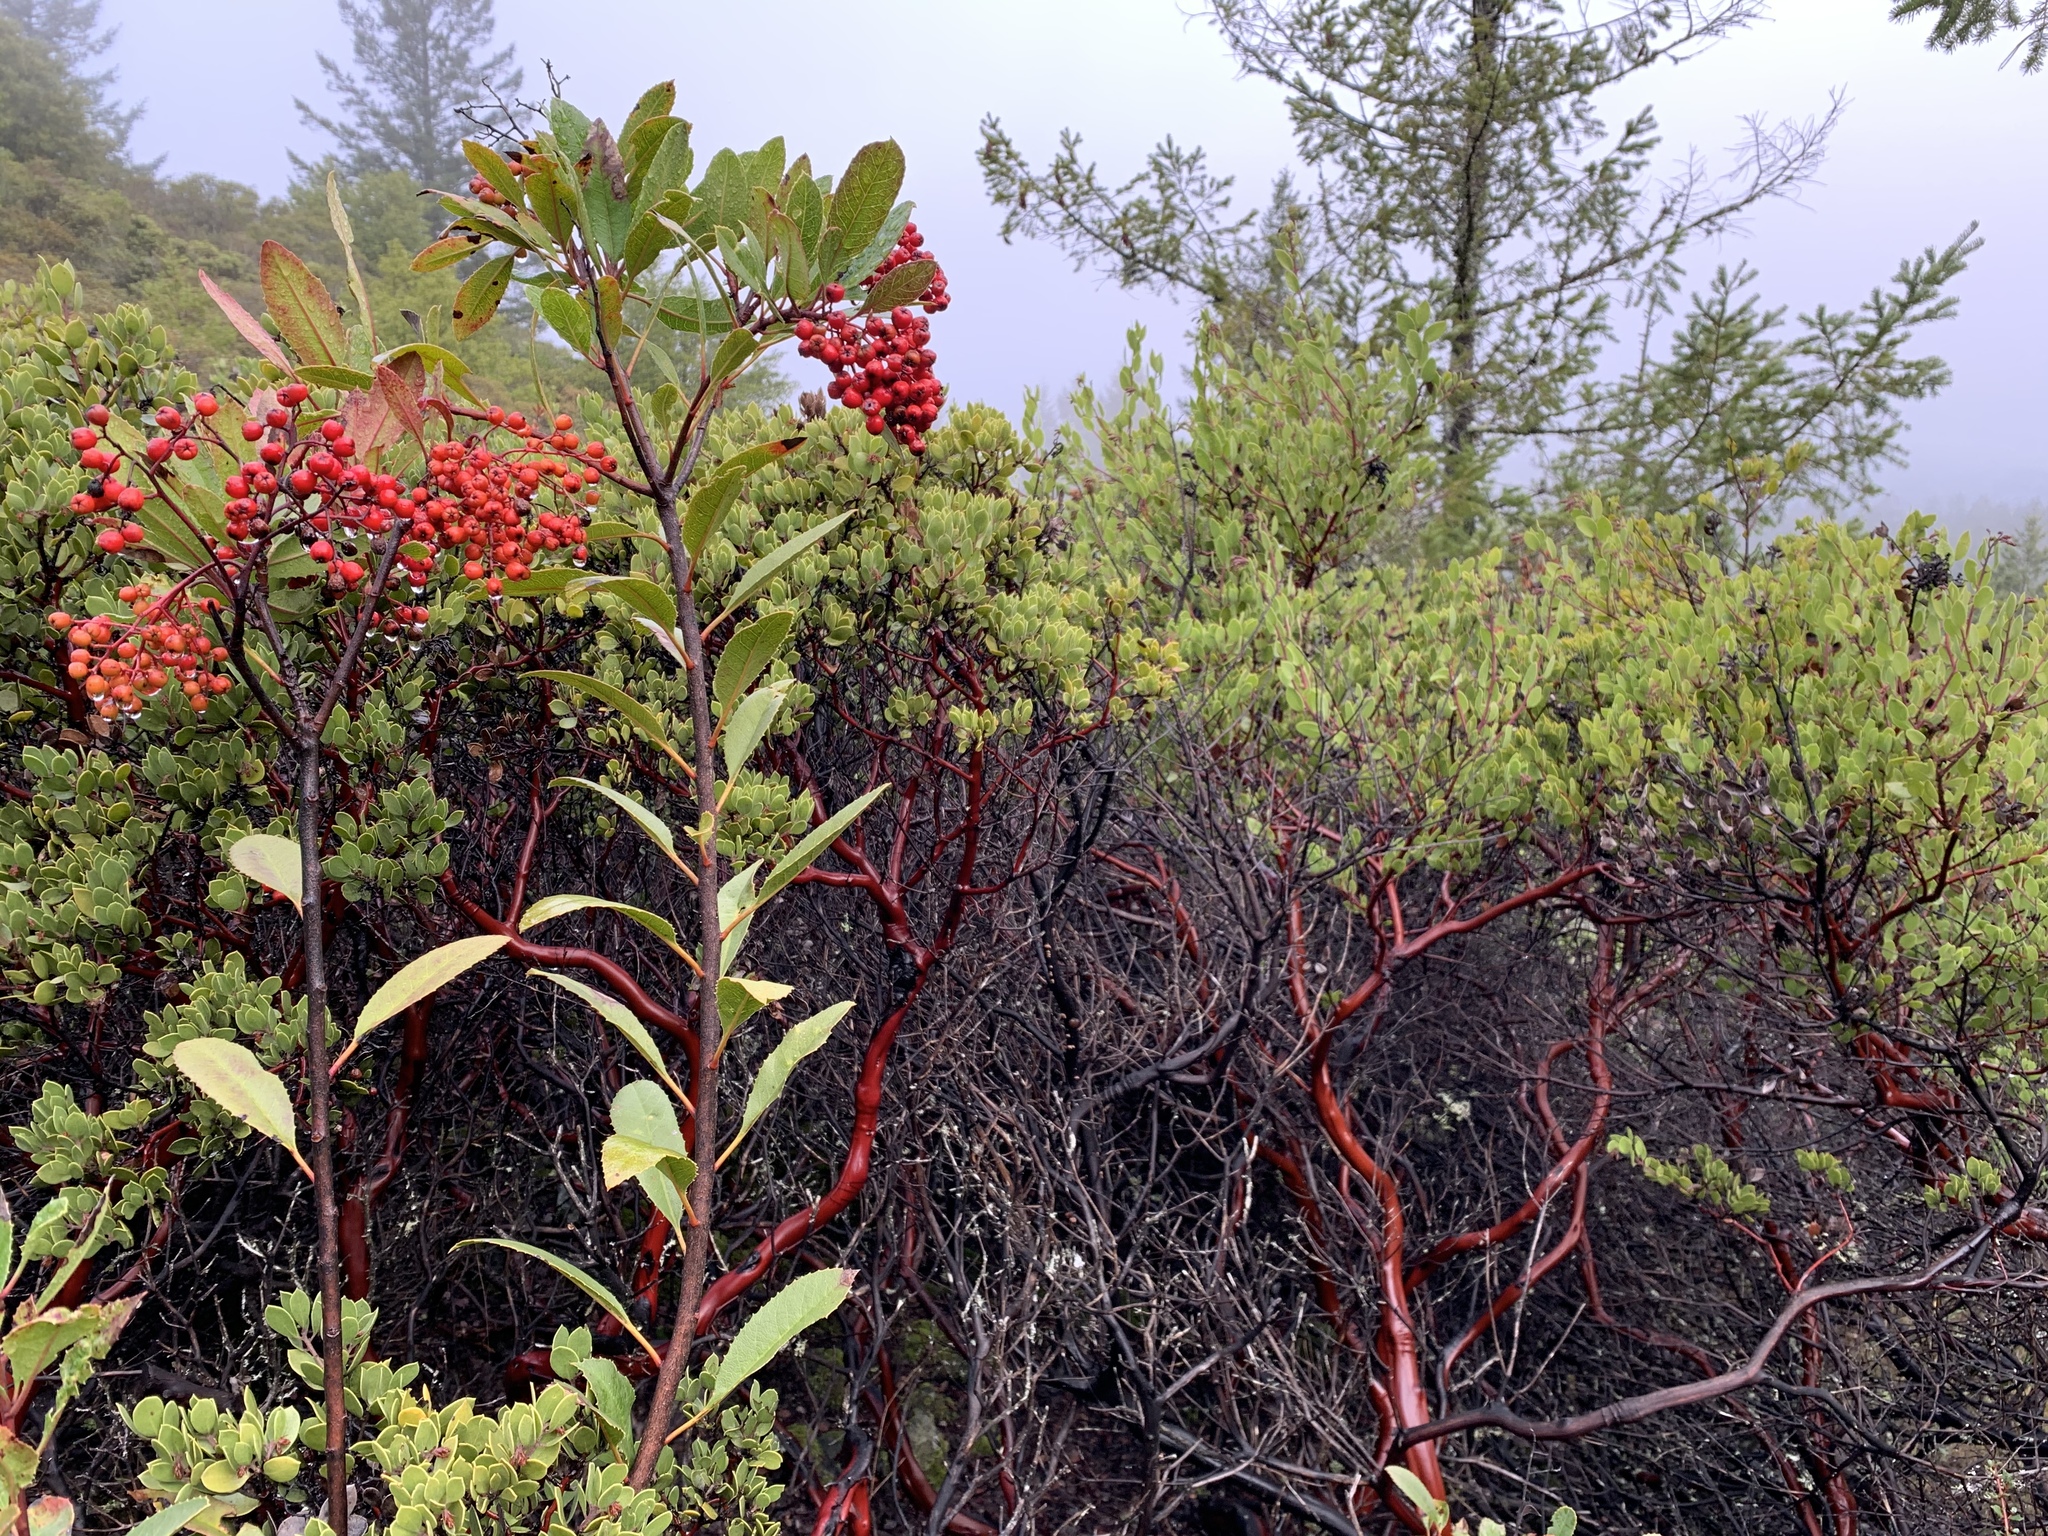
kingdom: Plantae
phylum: Tracheophyta
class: Magnoliopsida
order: Rosales
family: Rosaceae
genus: Heteromeles
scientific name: Heteromeles arbutifolia
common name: California-holly
